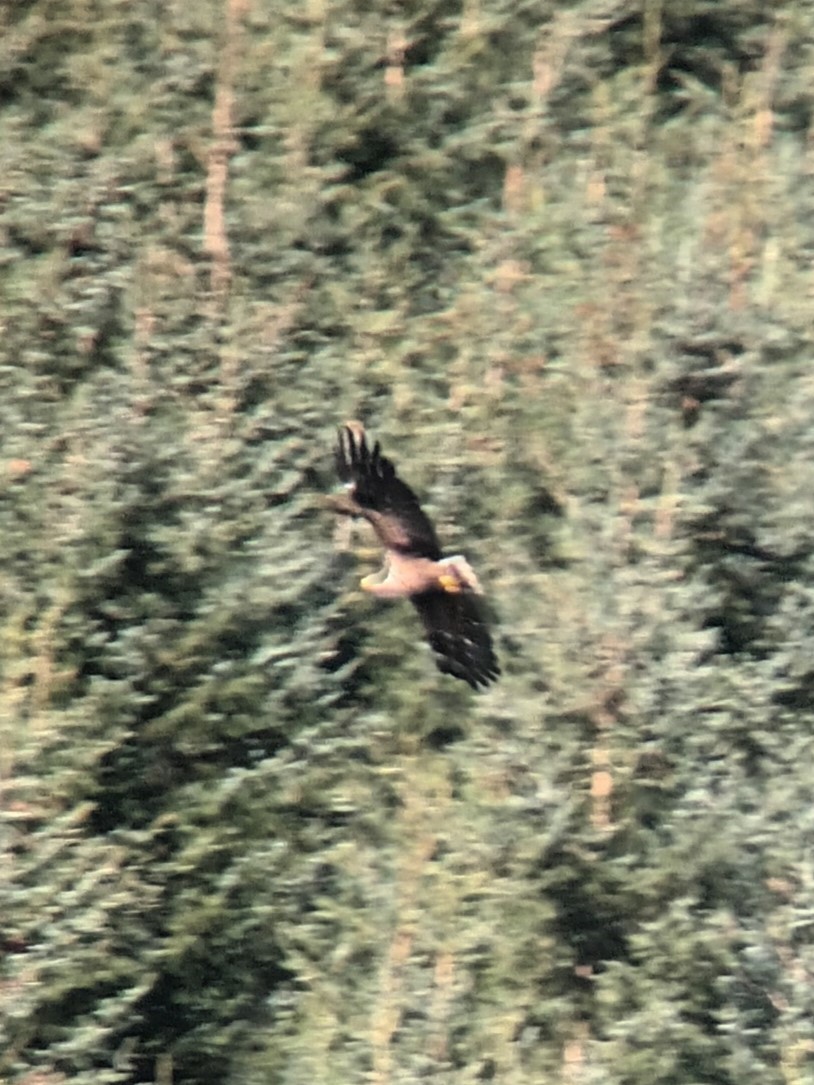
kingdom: Animalia
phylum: Chordata
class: Aves
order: Accipitriformes
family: Accipitridae
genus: Haliaeetus
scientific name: Haliaeetus albicilla
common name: White-tailed eagle
